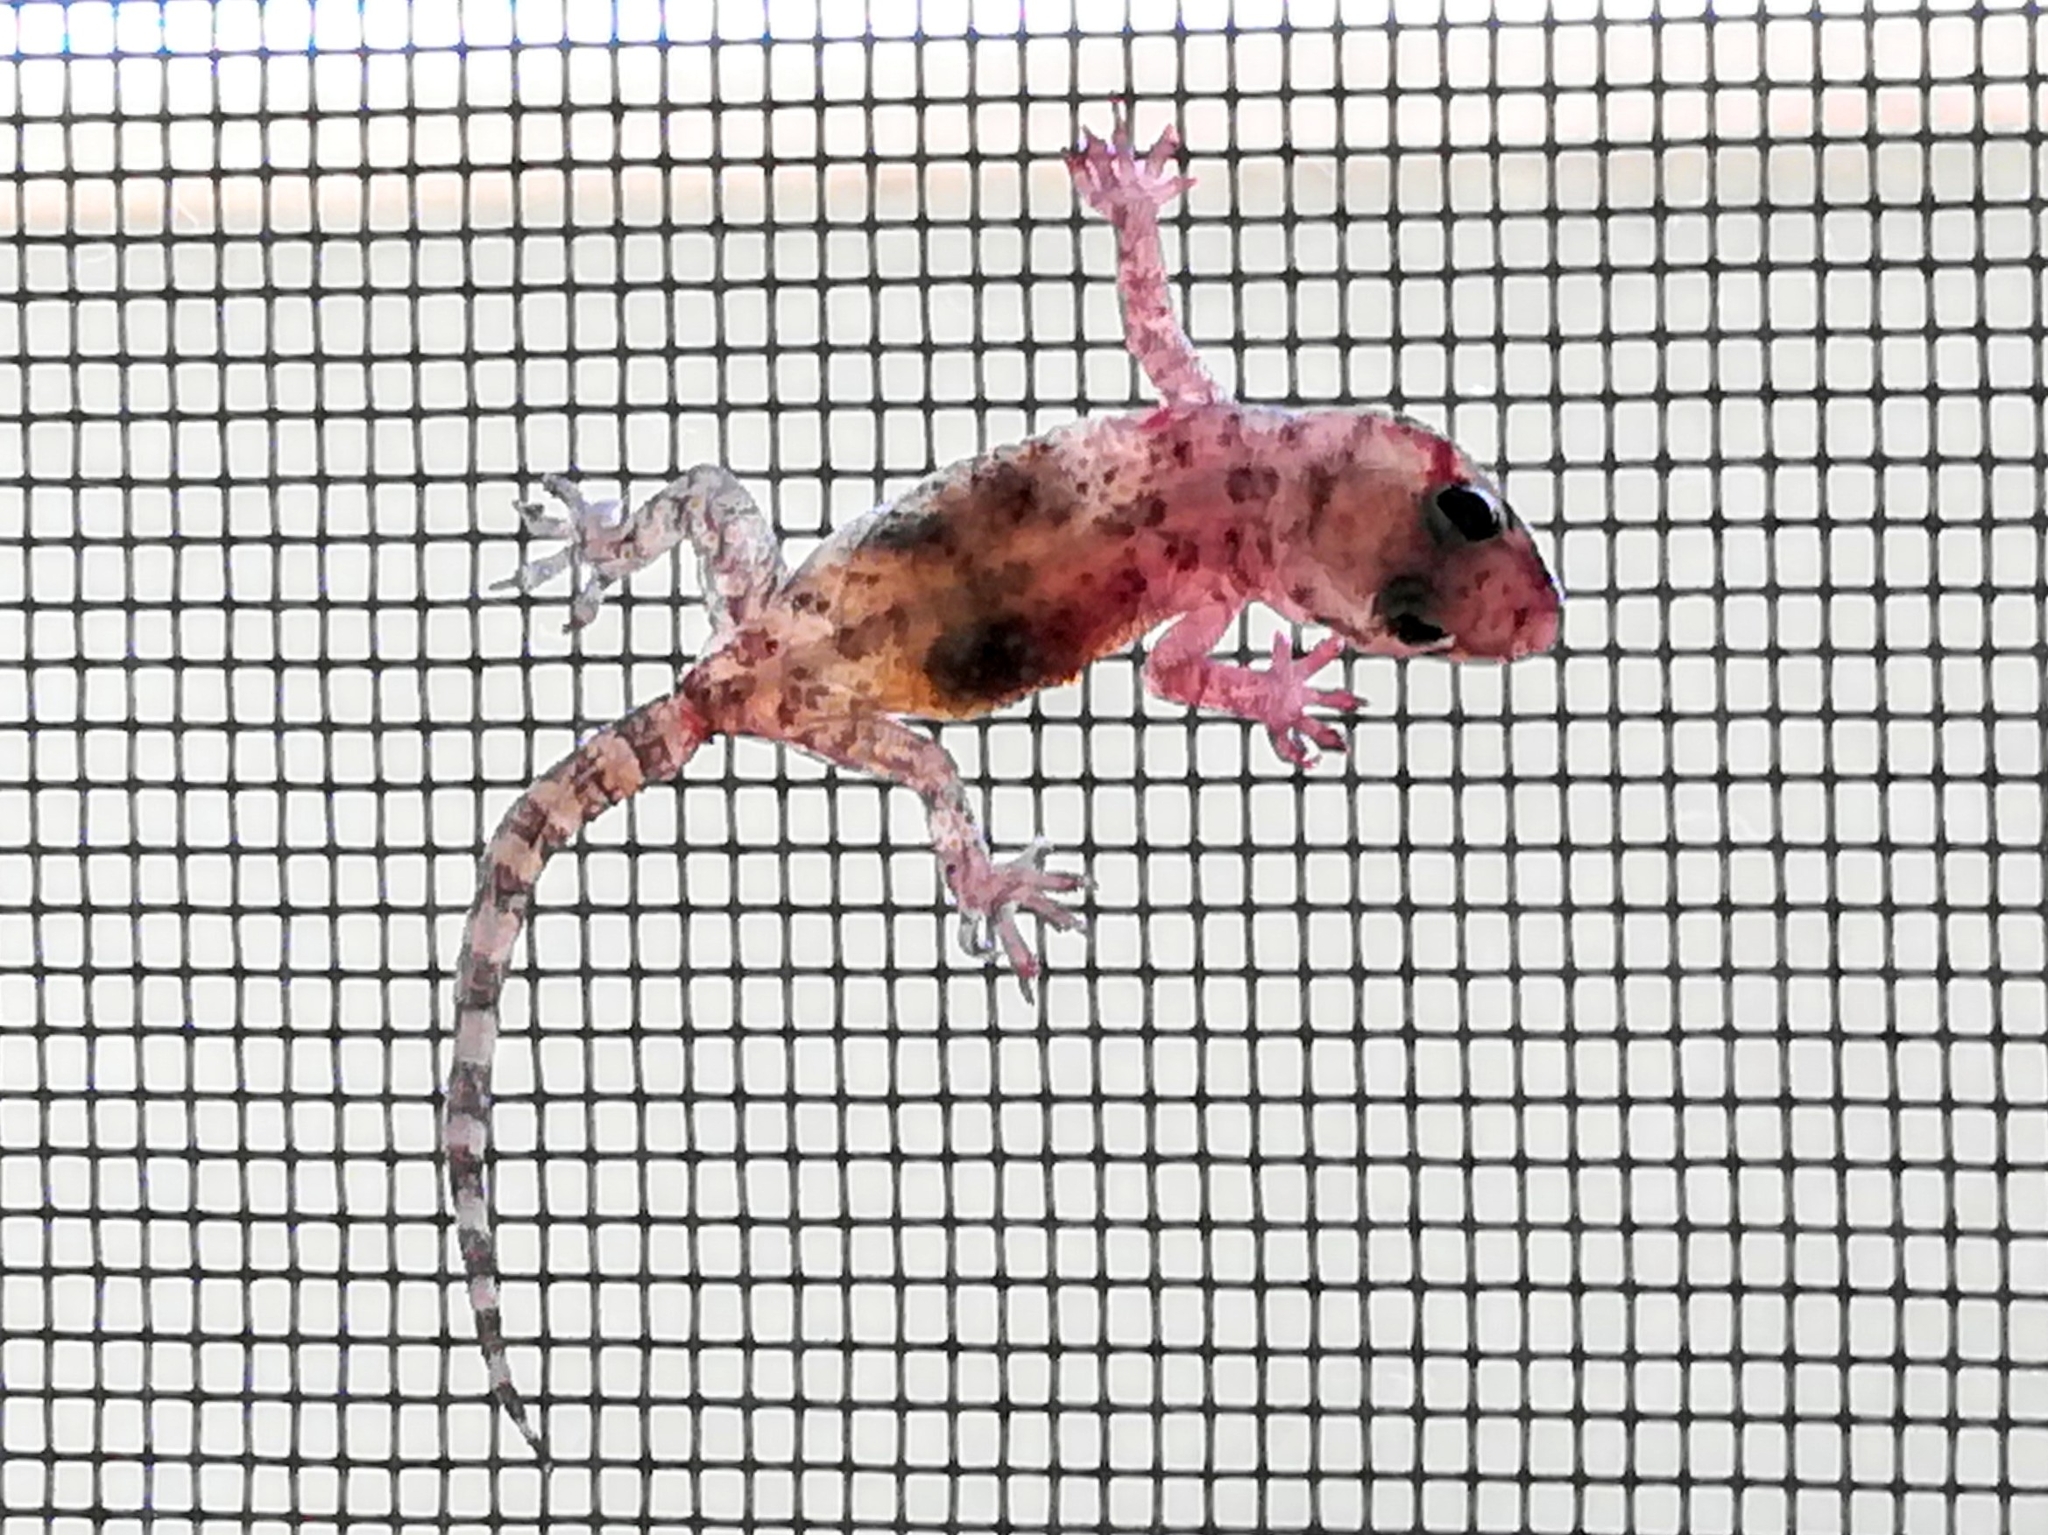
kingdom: Animalia
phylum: Chordata
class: Squamata
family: Gekkonidae
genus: Hemidactylus
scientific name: Hemidactylus turcicus
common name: Turkish gecko
